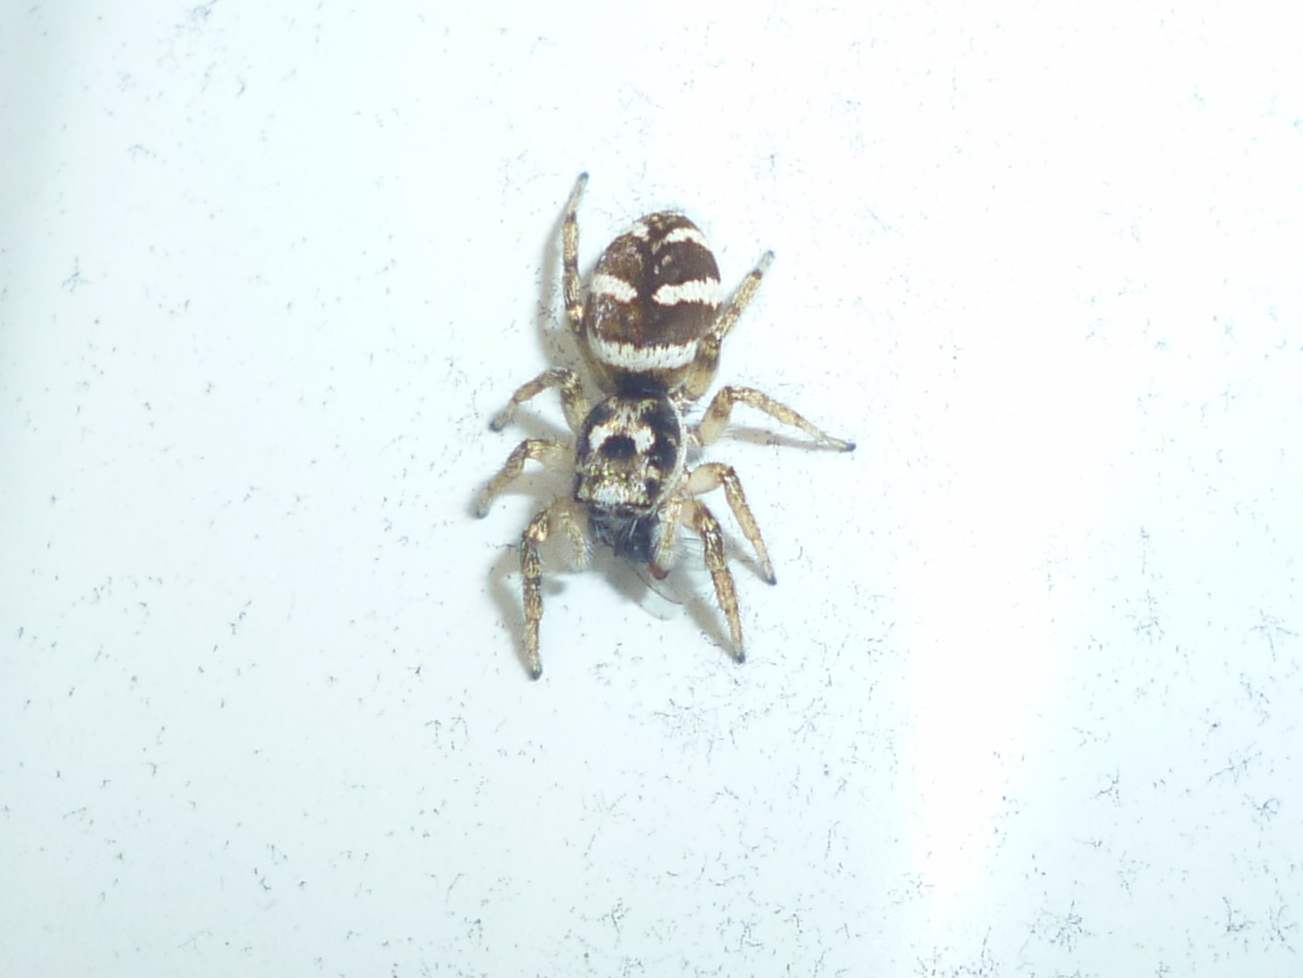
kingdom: Animalia
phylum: Arthropoda
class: Arachnida
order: Araneae
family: Salticidae
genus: Salticus
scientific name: Salticus scenicus
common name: Zebra jumper
